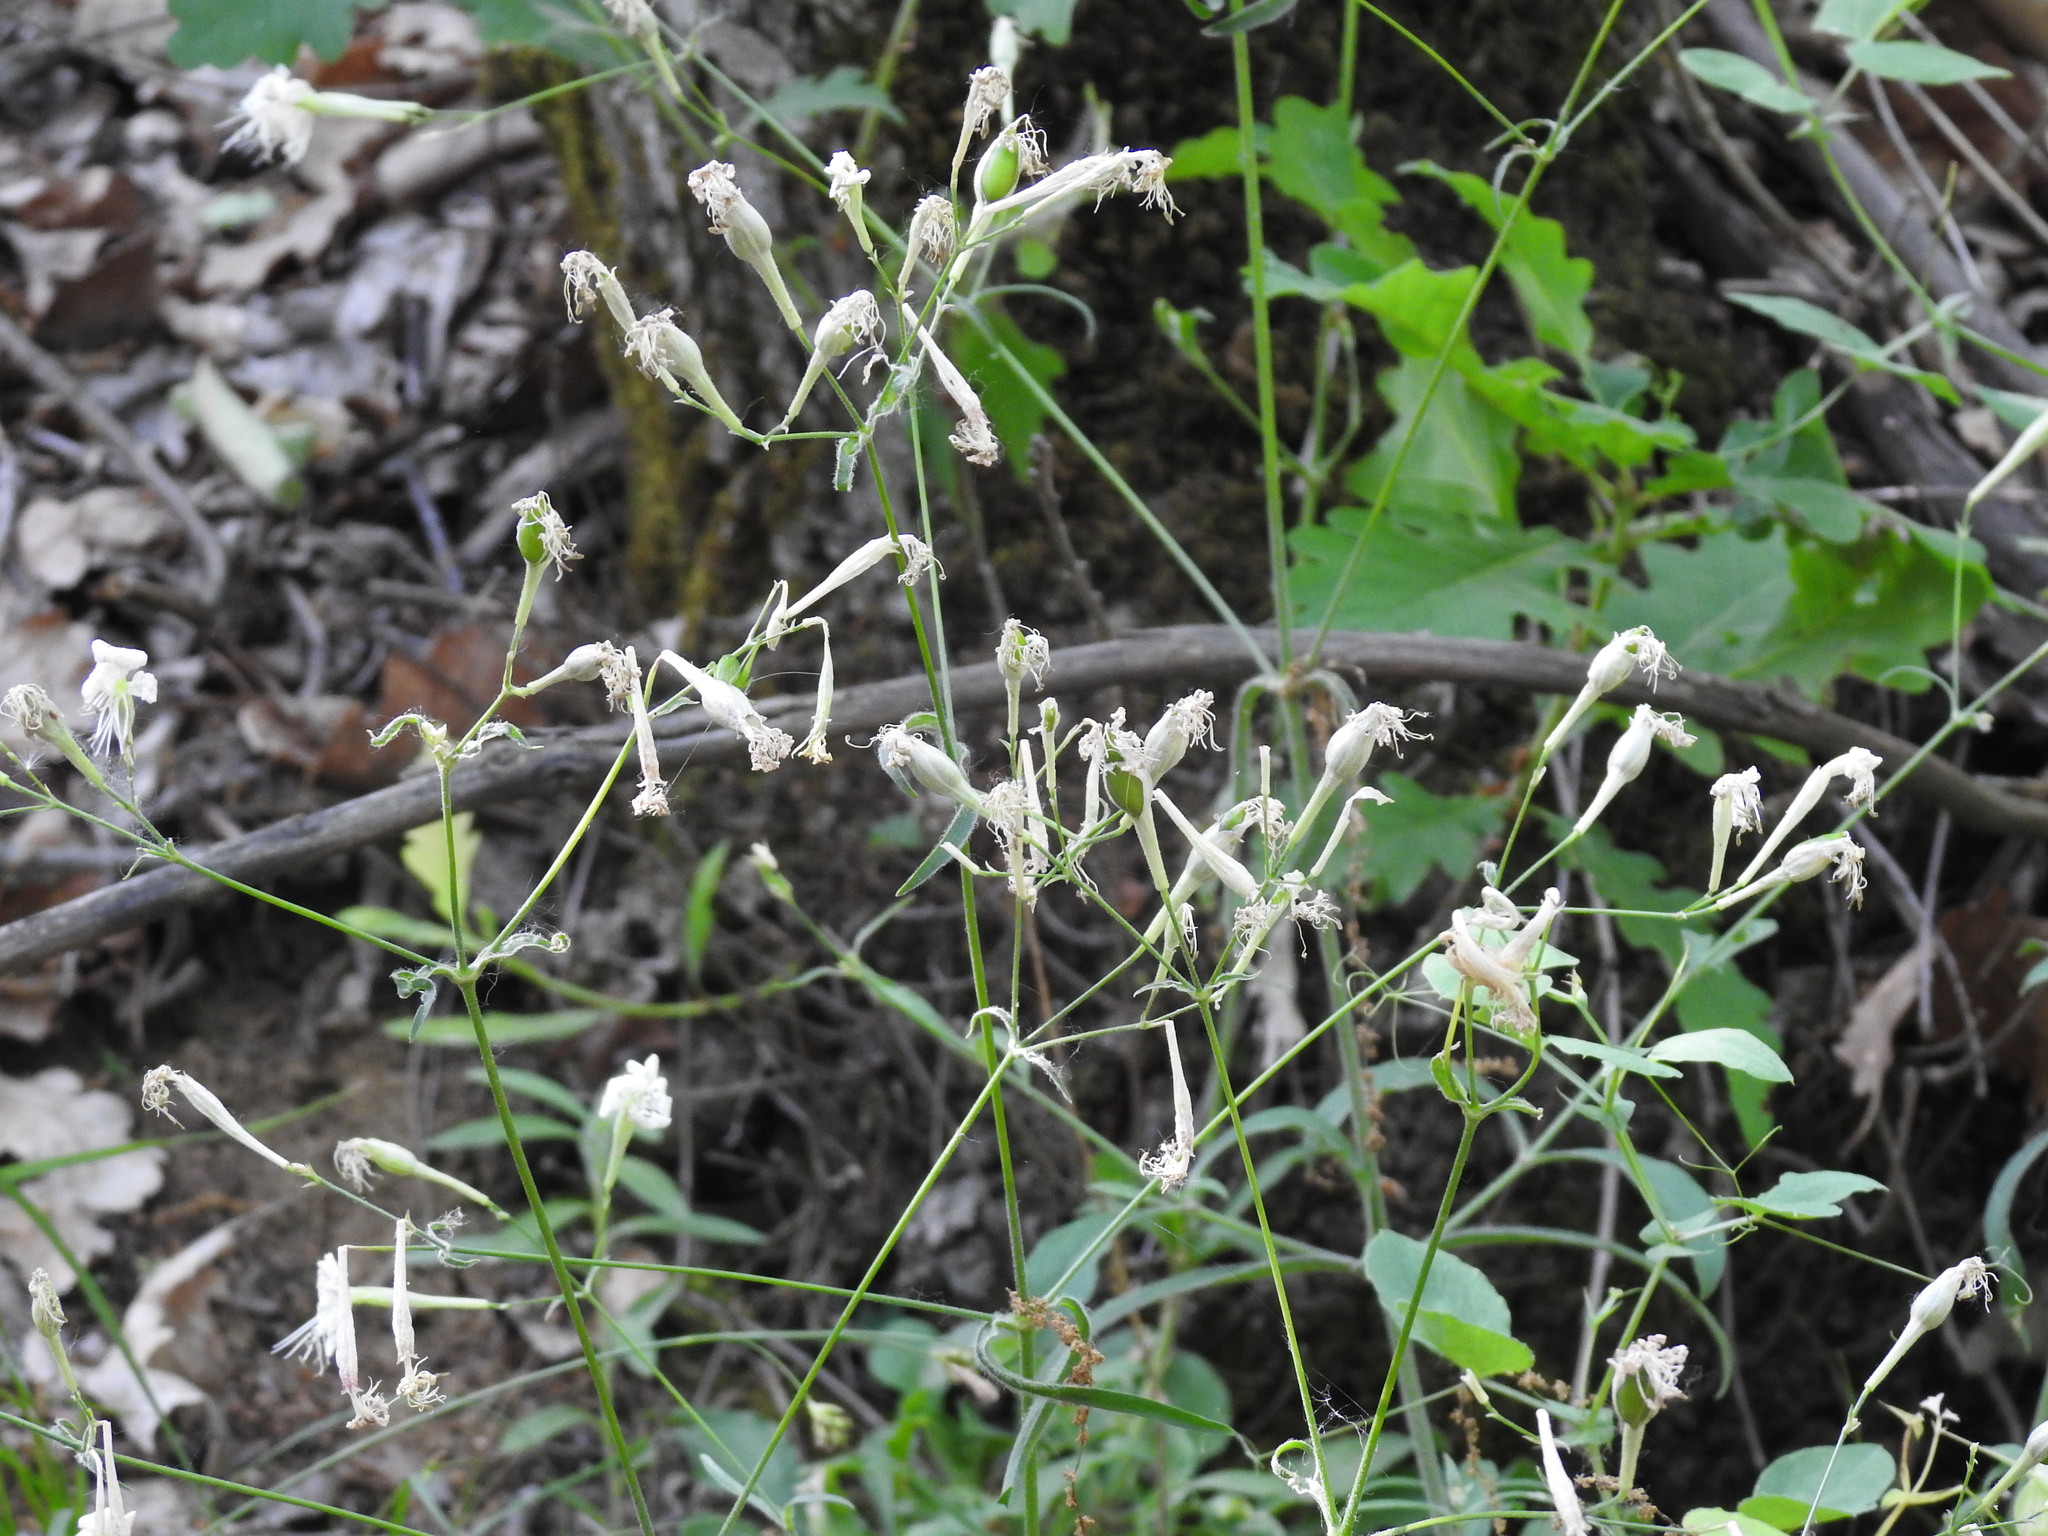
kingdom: Plantae
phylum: Tracheophyta
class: Magnoliopsida
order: Caryophyllales
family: Caryophyllaceae
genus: Silene
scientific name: Silene italica
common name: Italian catchfly
